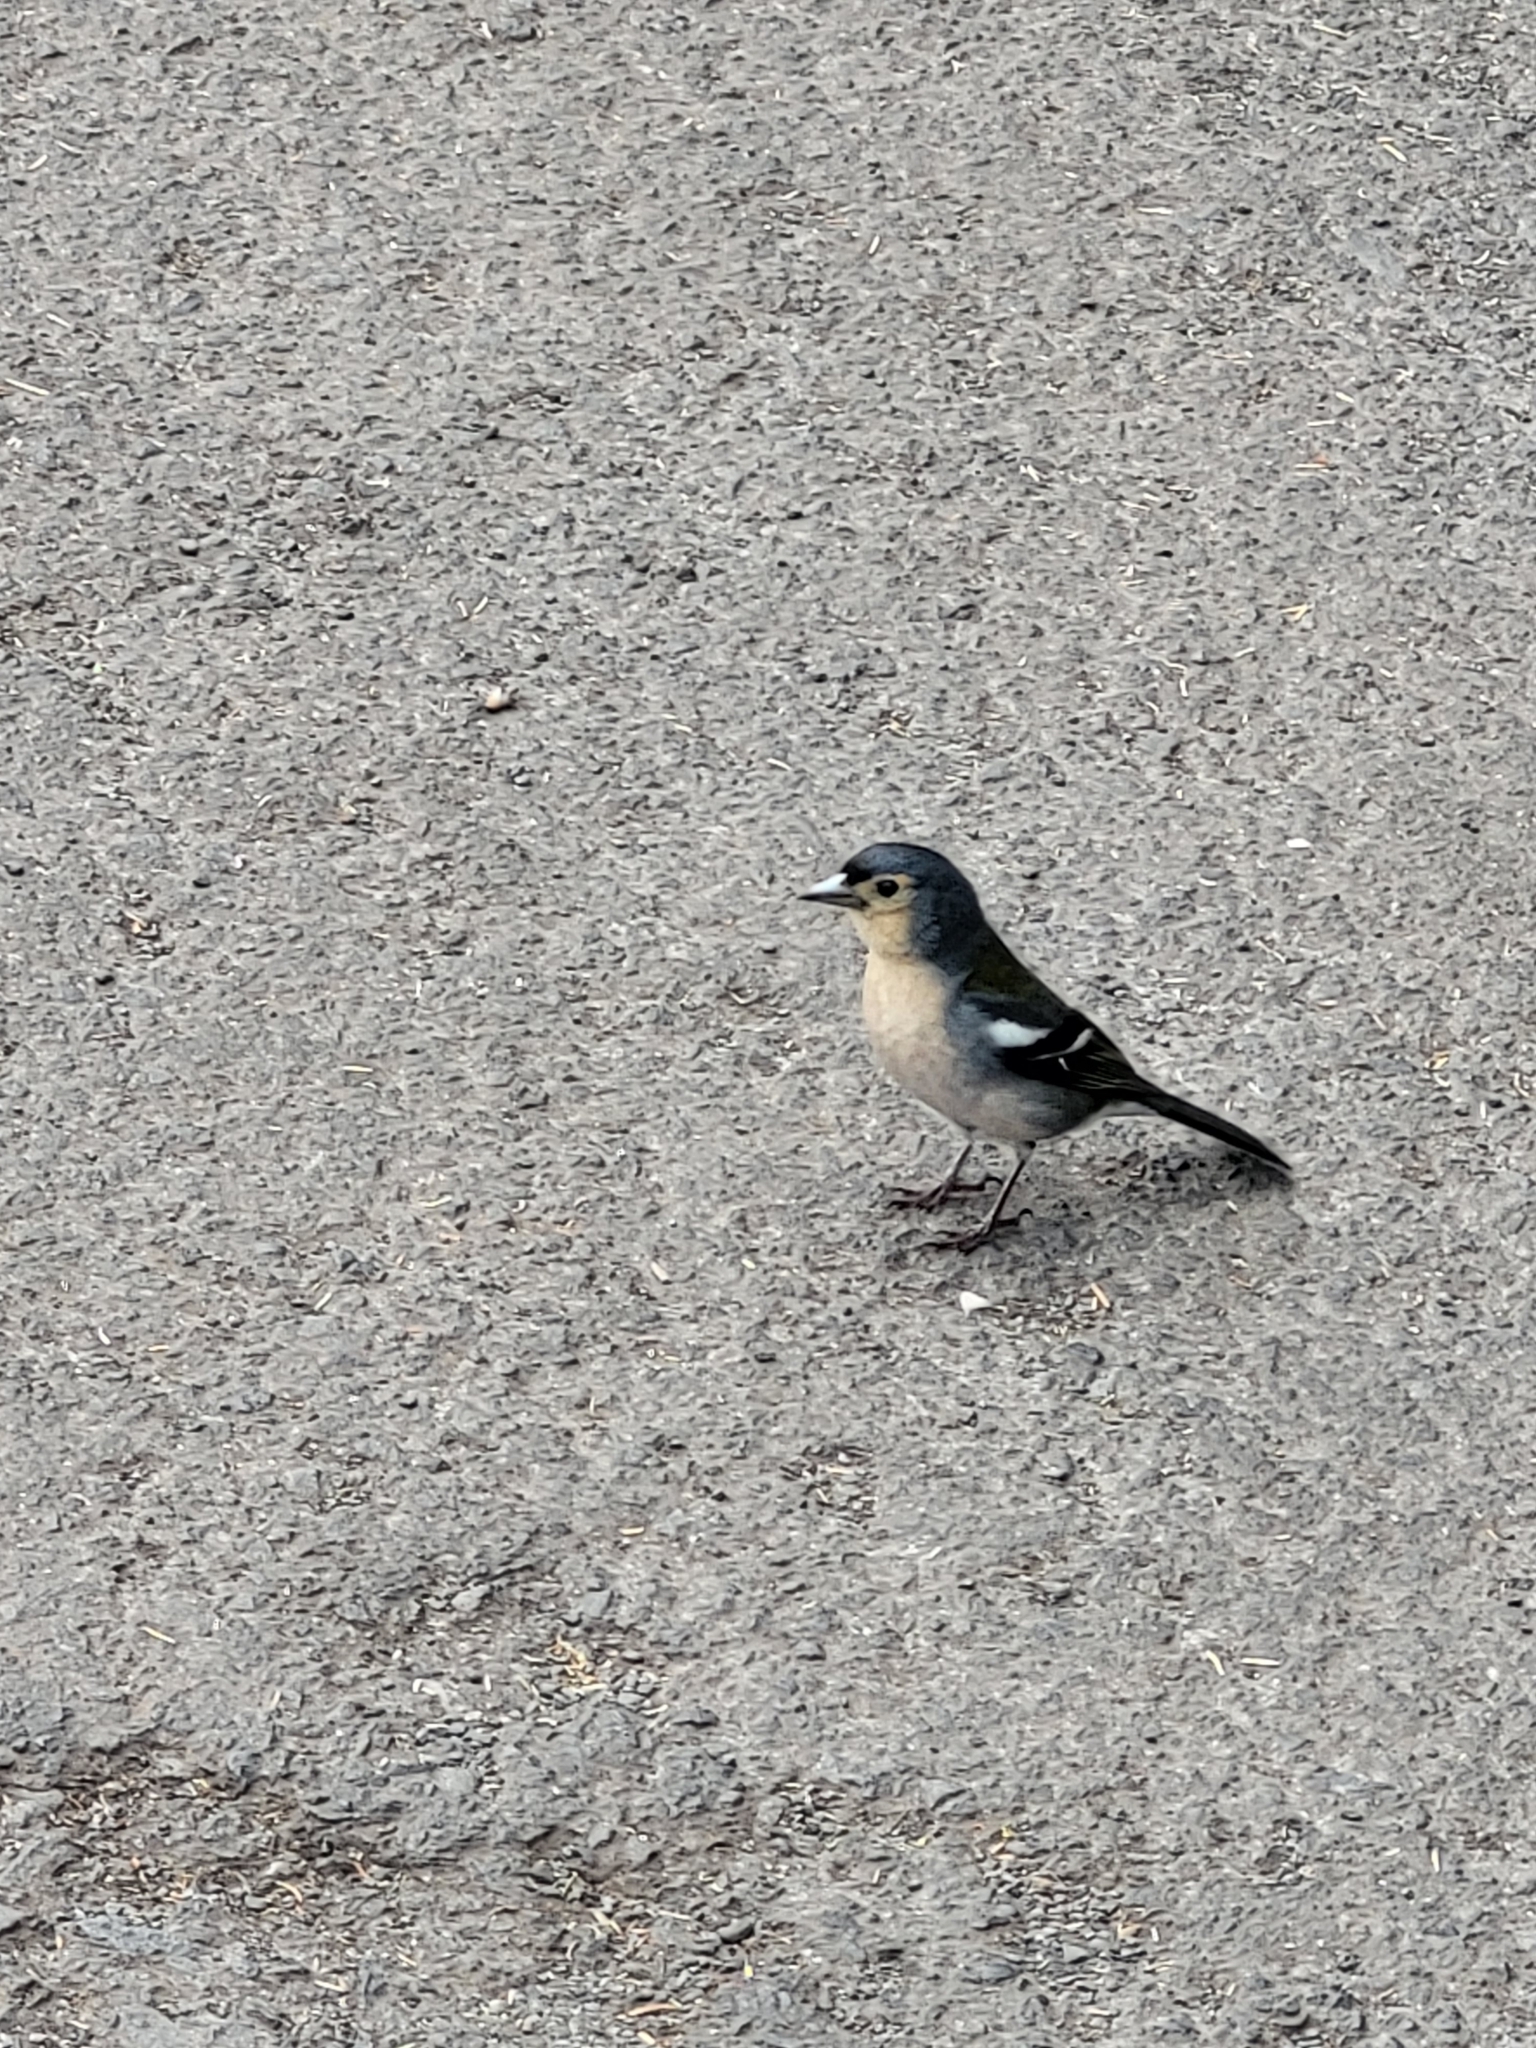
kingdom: Animalia
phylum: Chordata
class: Aves
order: Passeriformes
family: Fringillidae
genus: Fringilla
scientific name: Fringilla maderensis
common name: Madeira chaffinch
